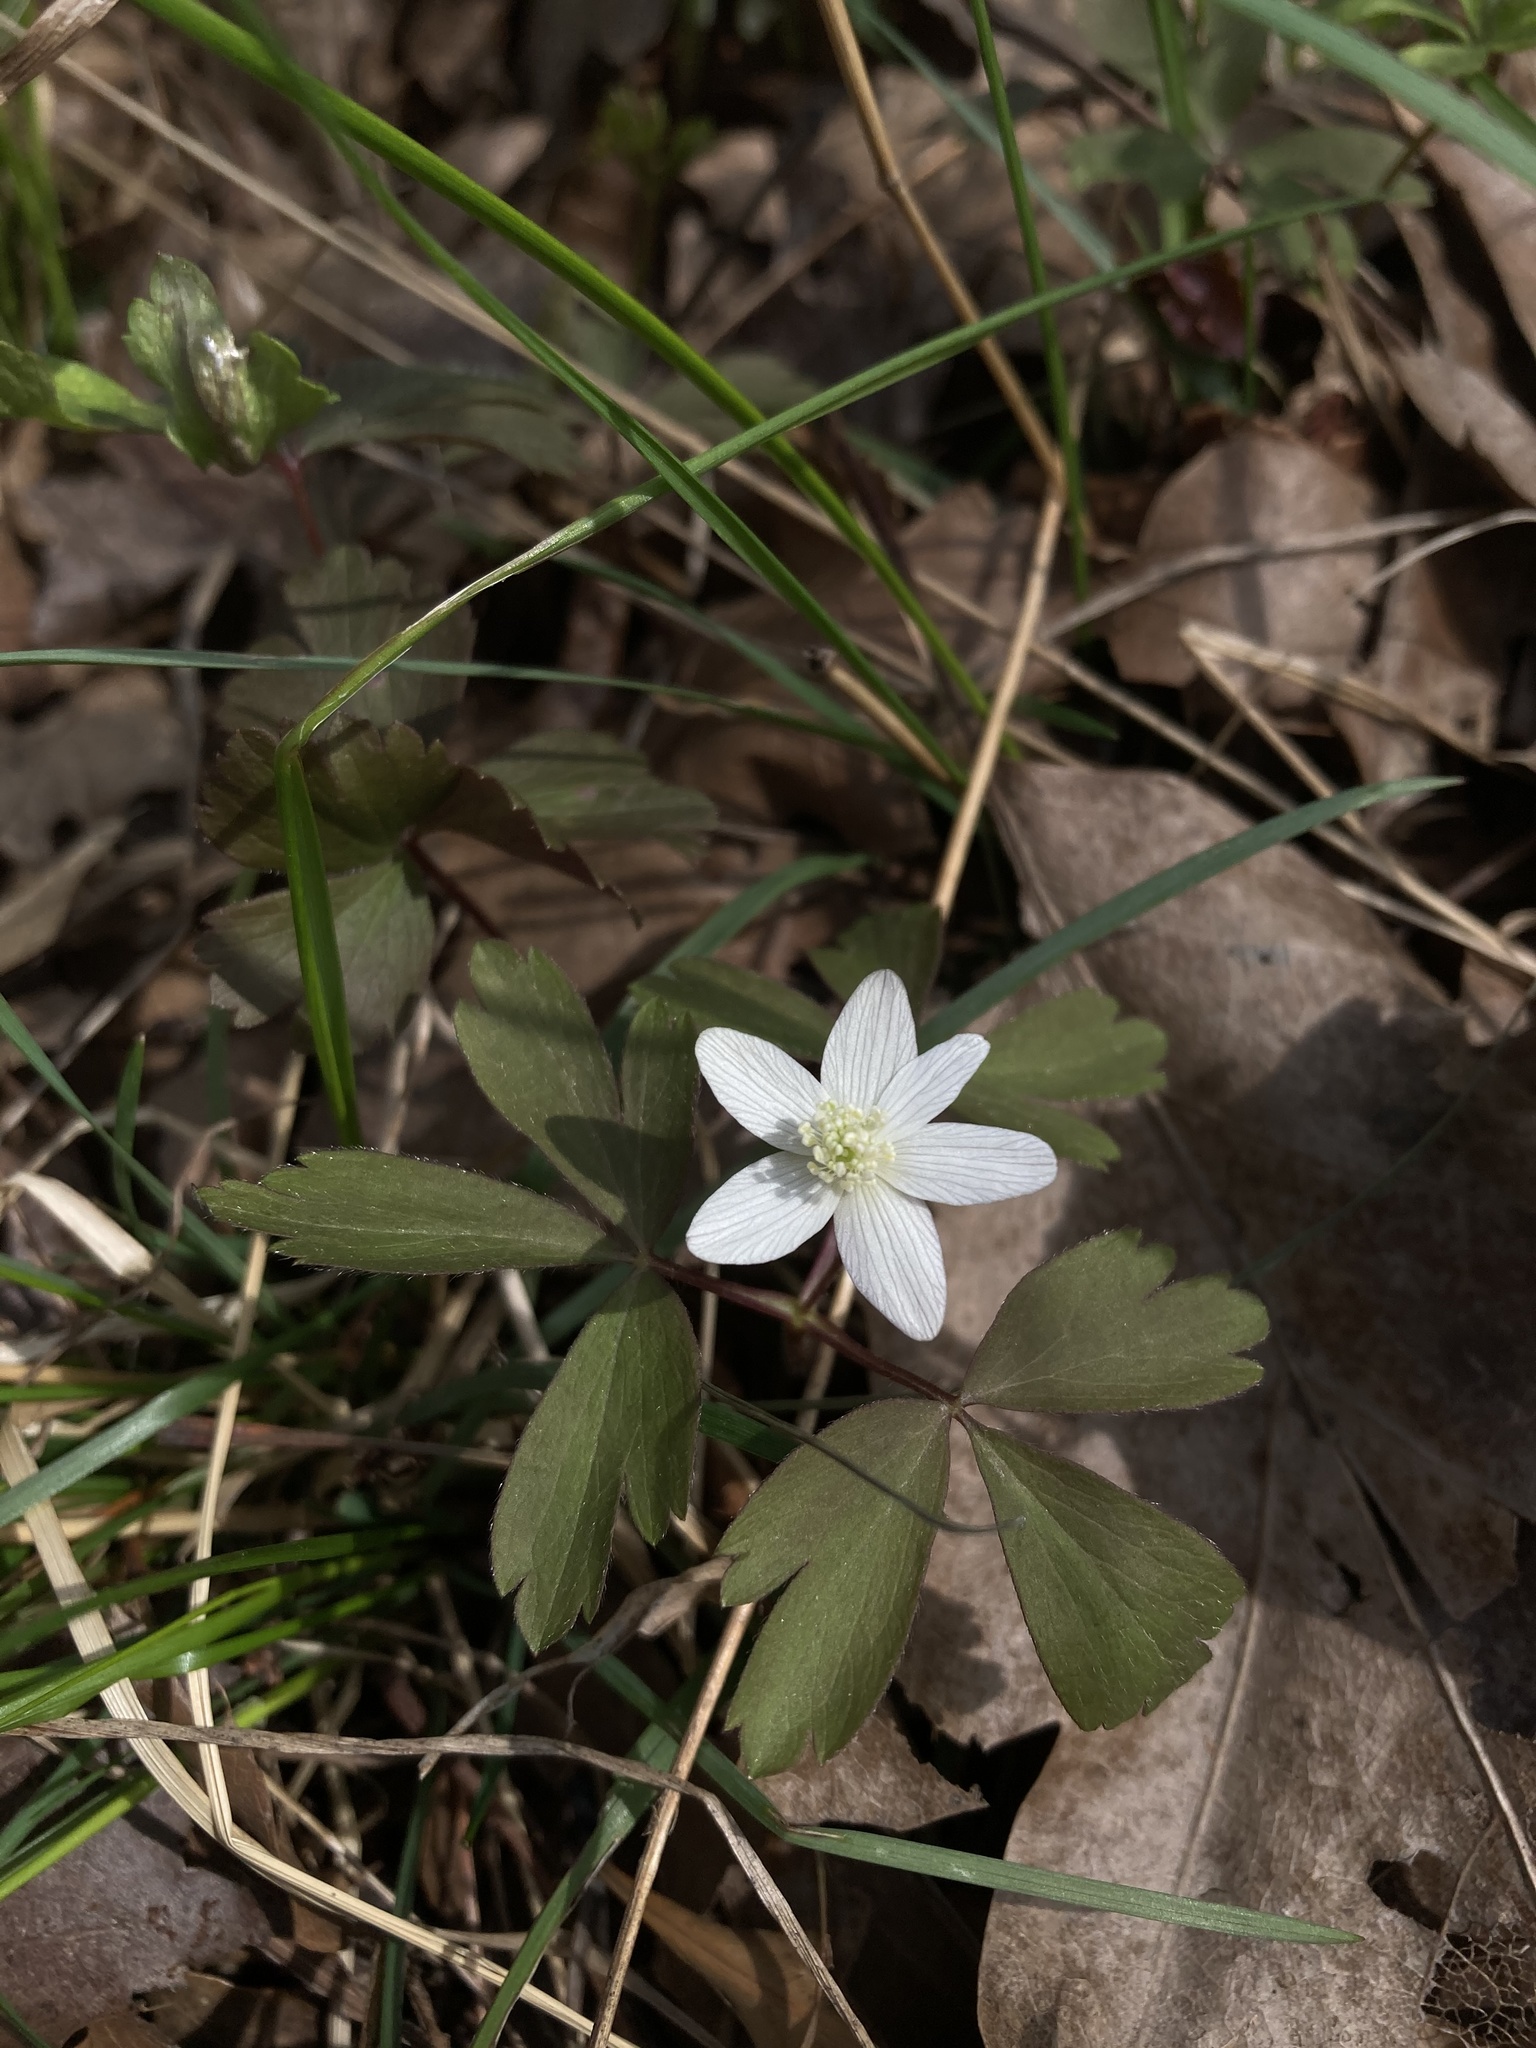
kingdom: Plantae
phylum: Tracheophyta
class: Magnoliopsida
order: Ranunculales
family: Ranunculaceae
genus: Anemone
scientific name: Anemone quinquefolia
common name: Wood anemone
